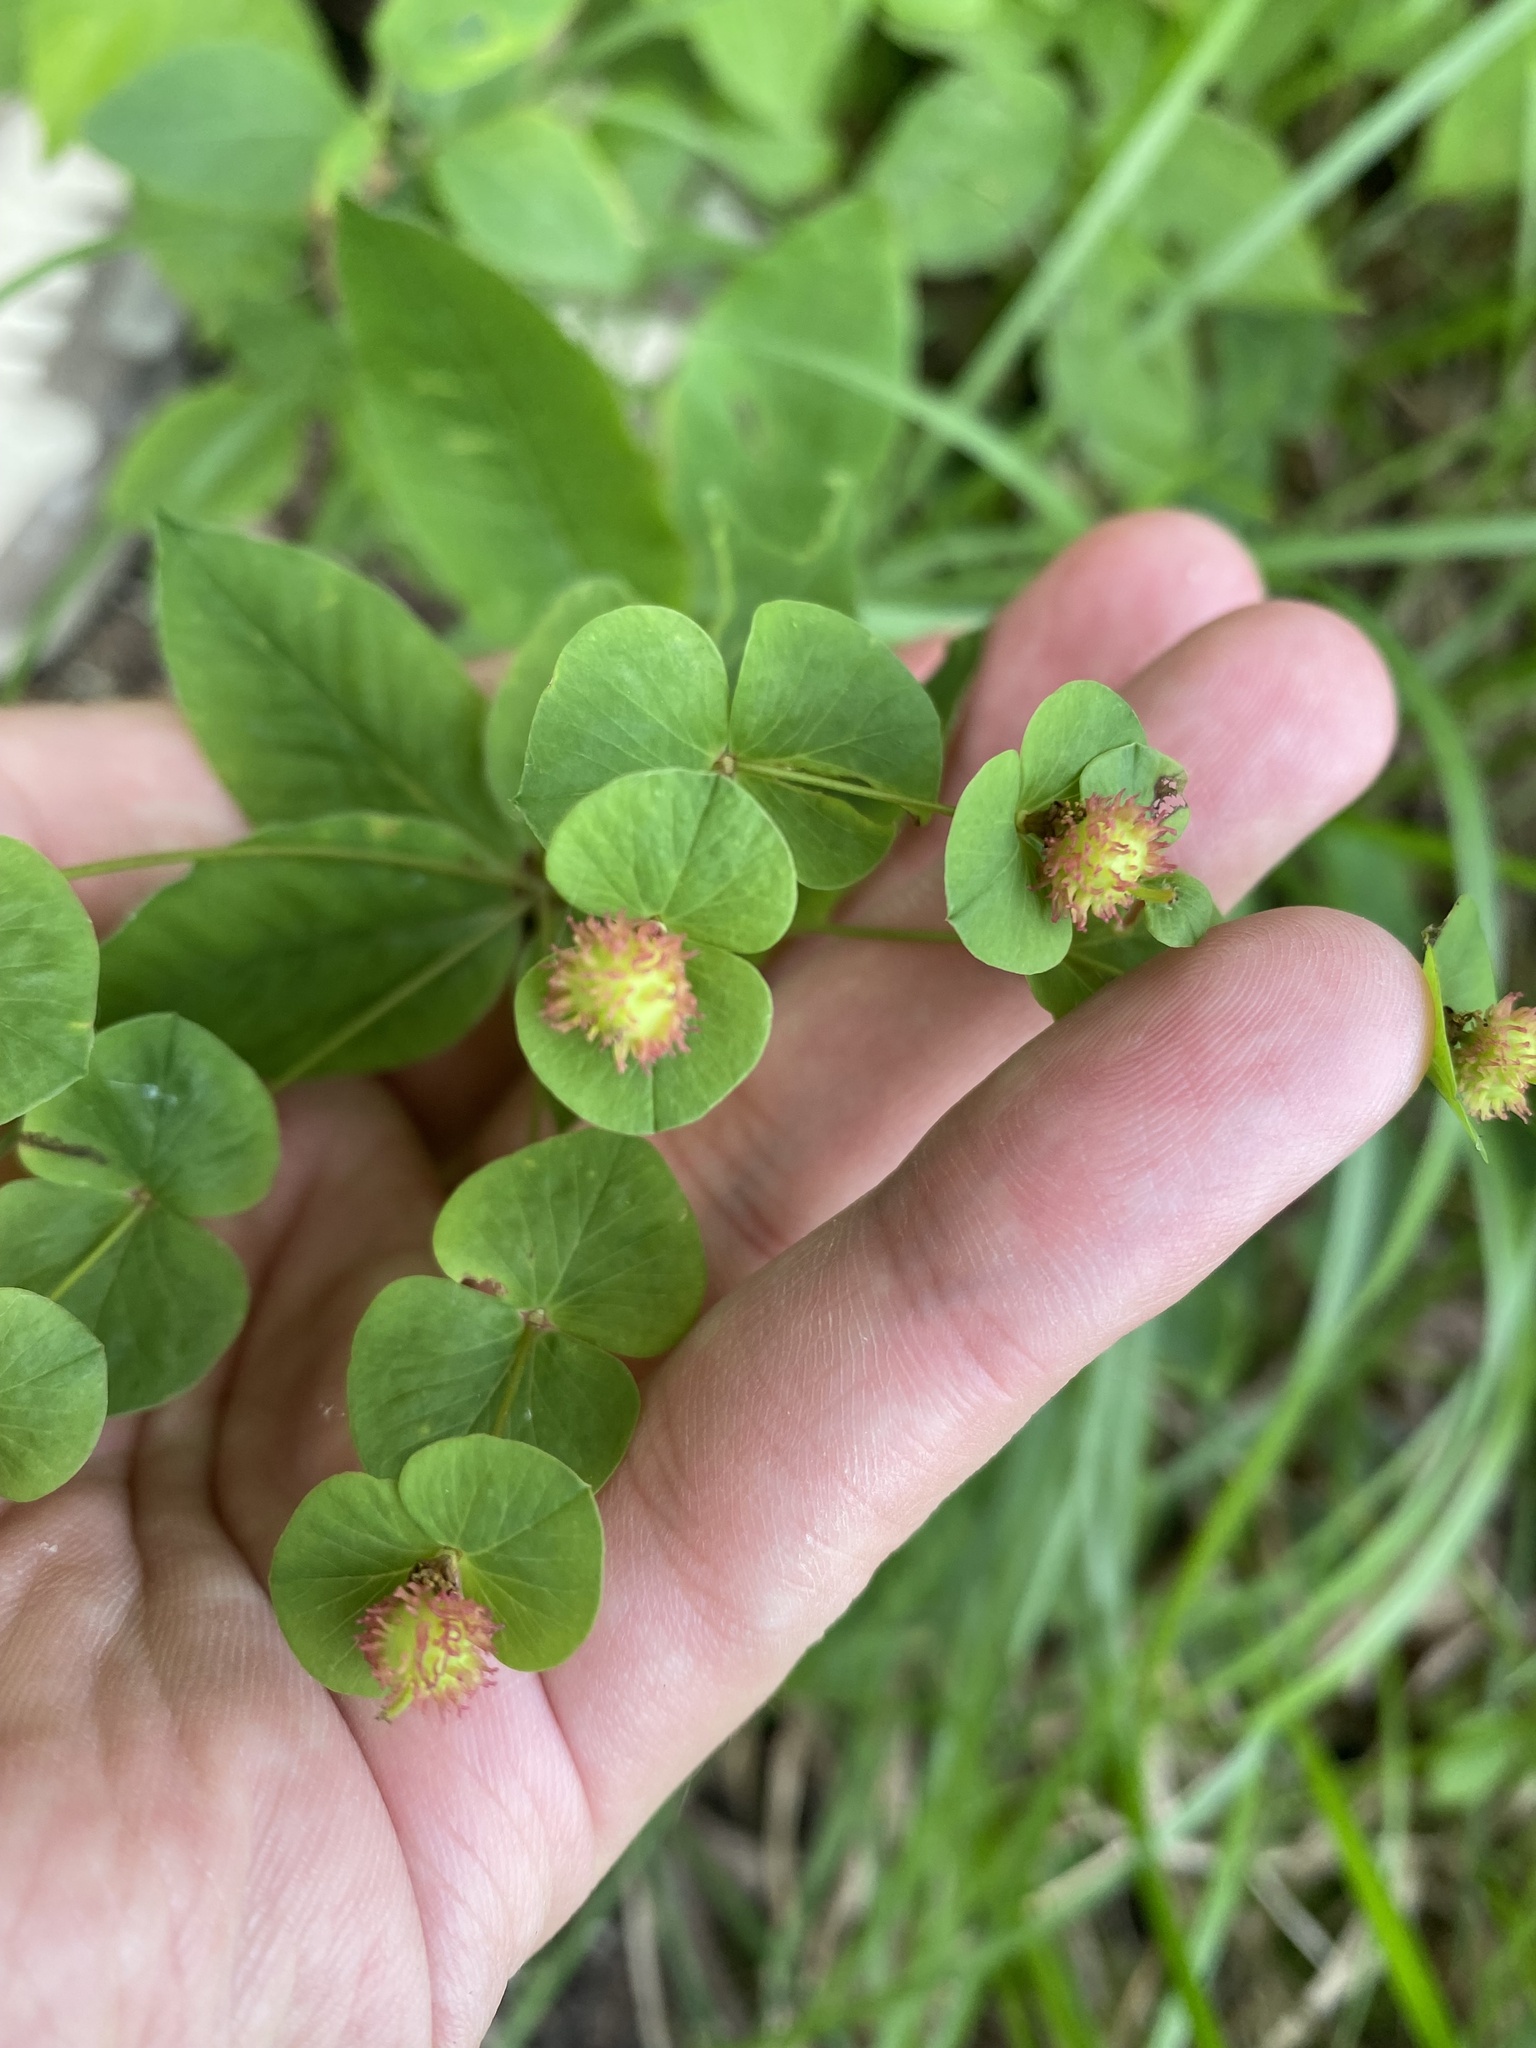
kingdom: Plantae
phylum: Tracheophyta
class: Magnoliopsida
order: Malpighiales
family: Euphorbiaceae
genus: Euphorbia
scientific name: Euphorbia squamosa
